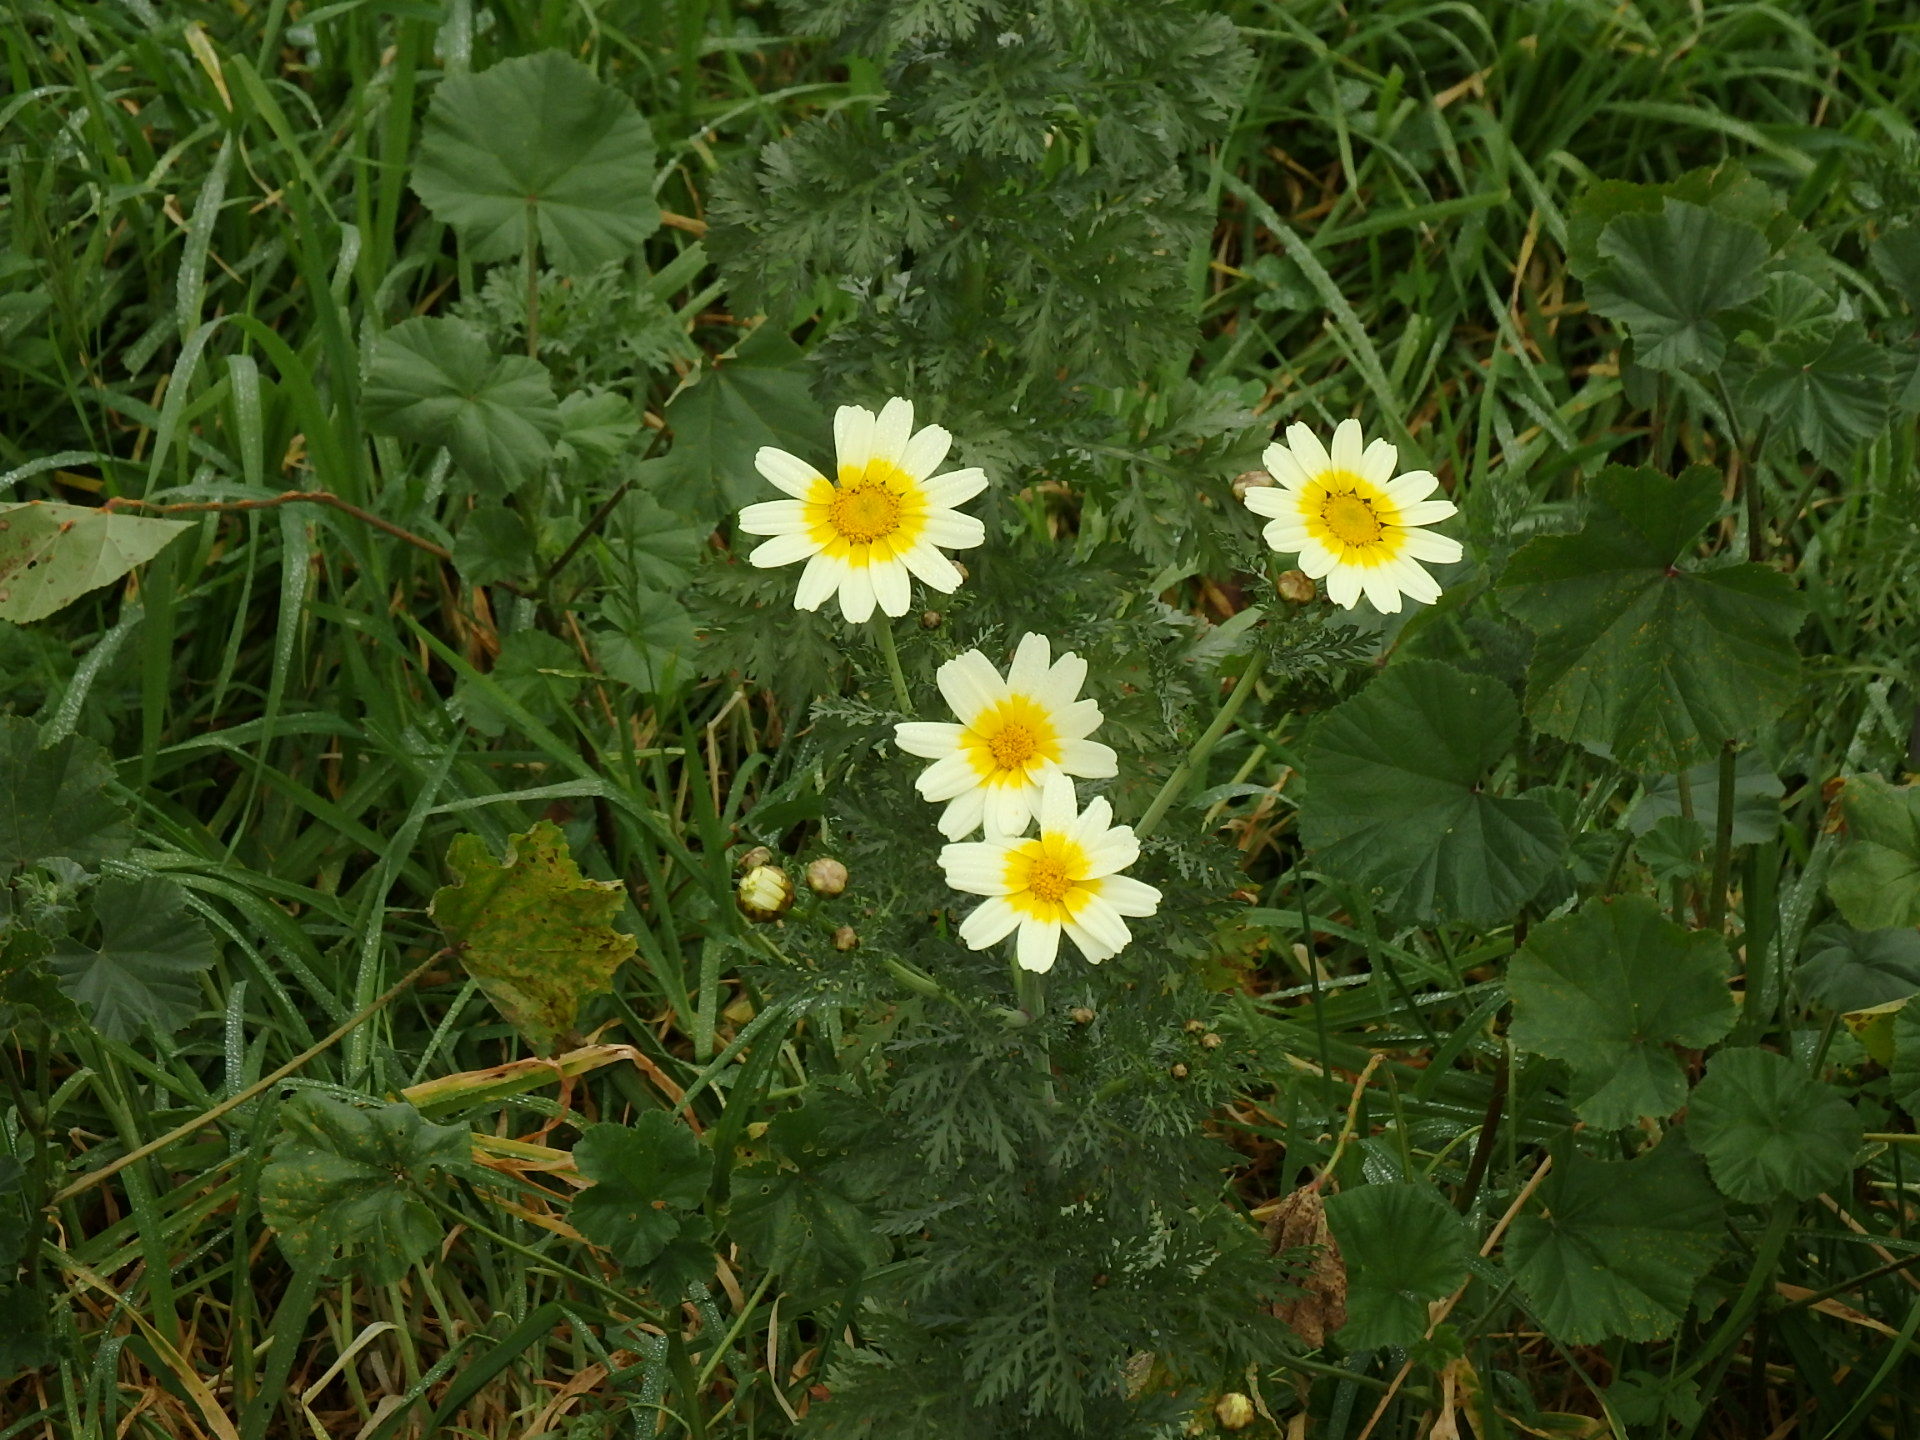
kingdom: Plantae
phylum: Tracheophyta
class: Magnoliopsida
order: Asterales
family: Asteraceae
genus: Glebionis
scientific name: Glebionis coronaria
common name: Crowndaisy
